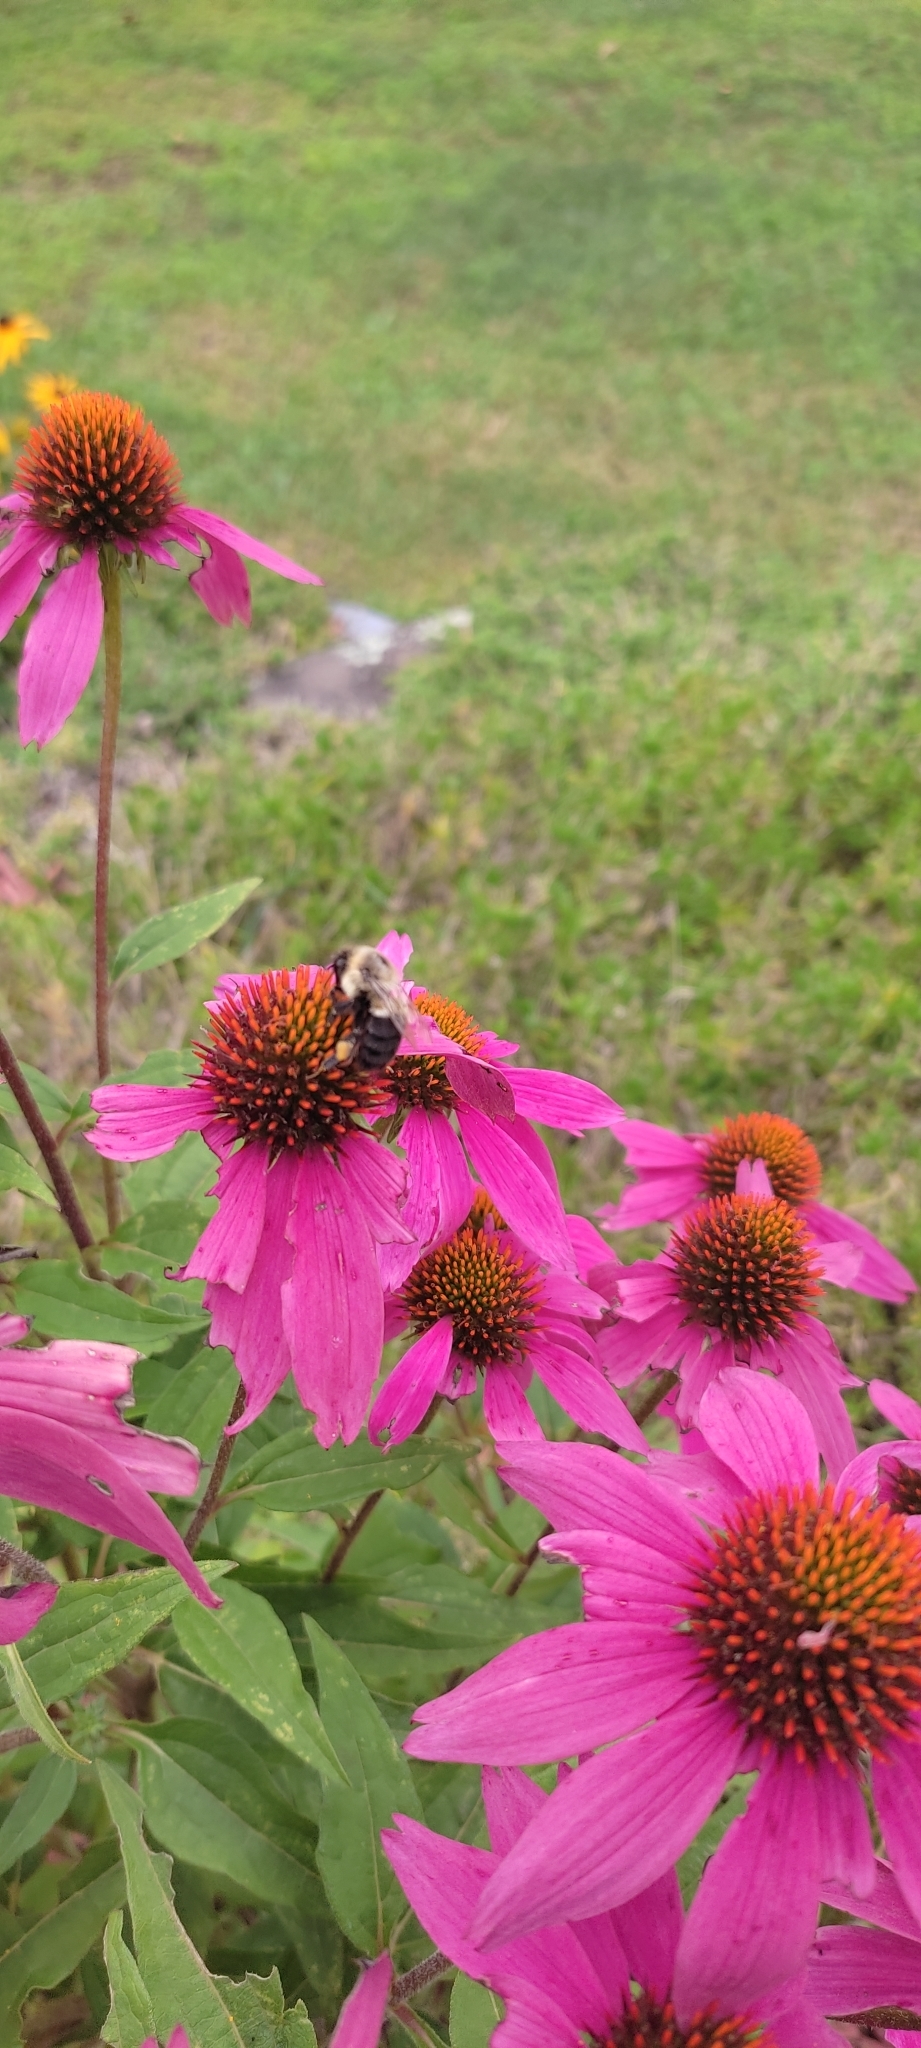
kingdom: Animalia
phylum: Arthropoda
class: Insecta
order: Hymenoptera
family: Apidae
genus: Bombus
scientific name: Bombus impatiens
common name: Common eastern bumble bee
